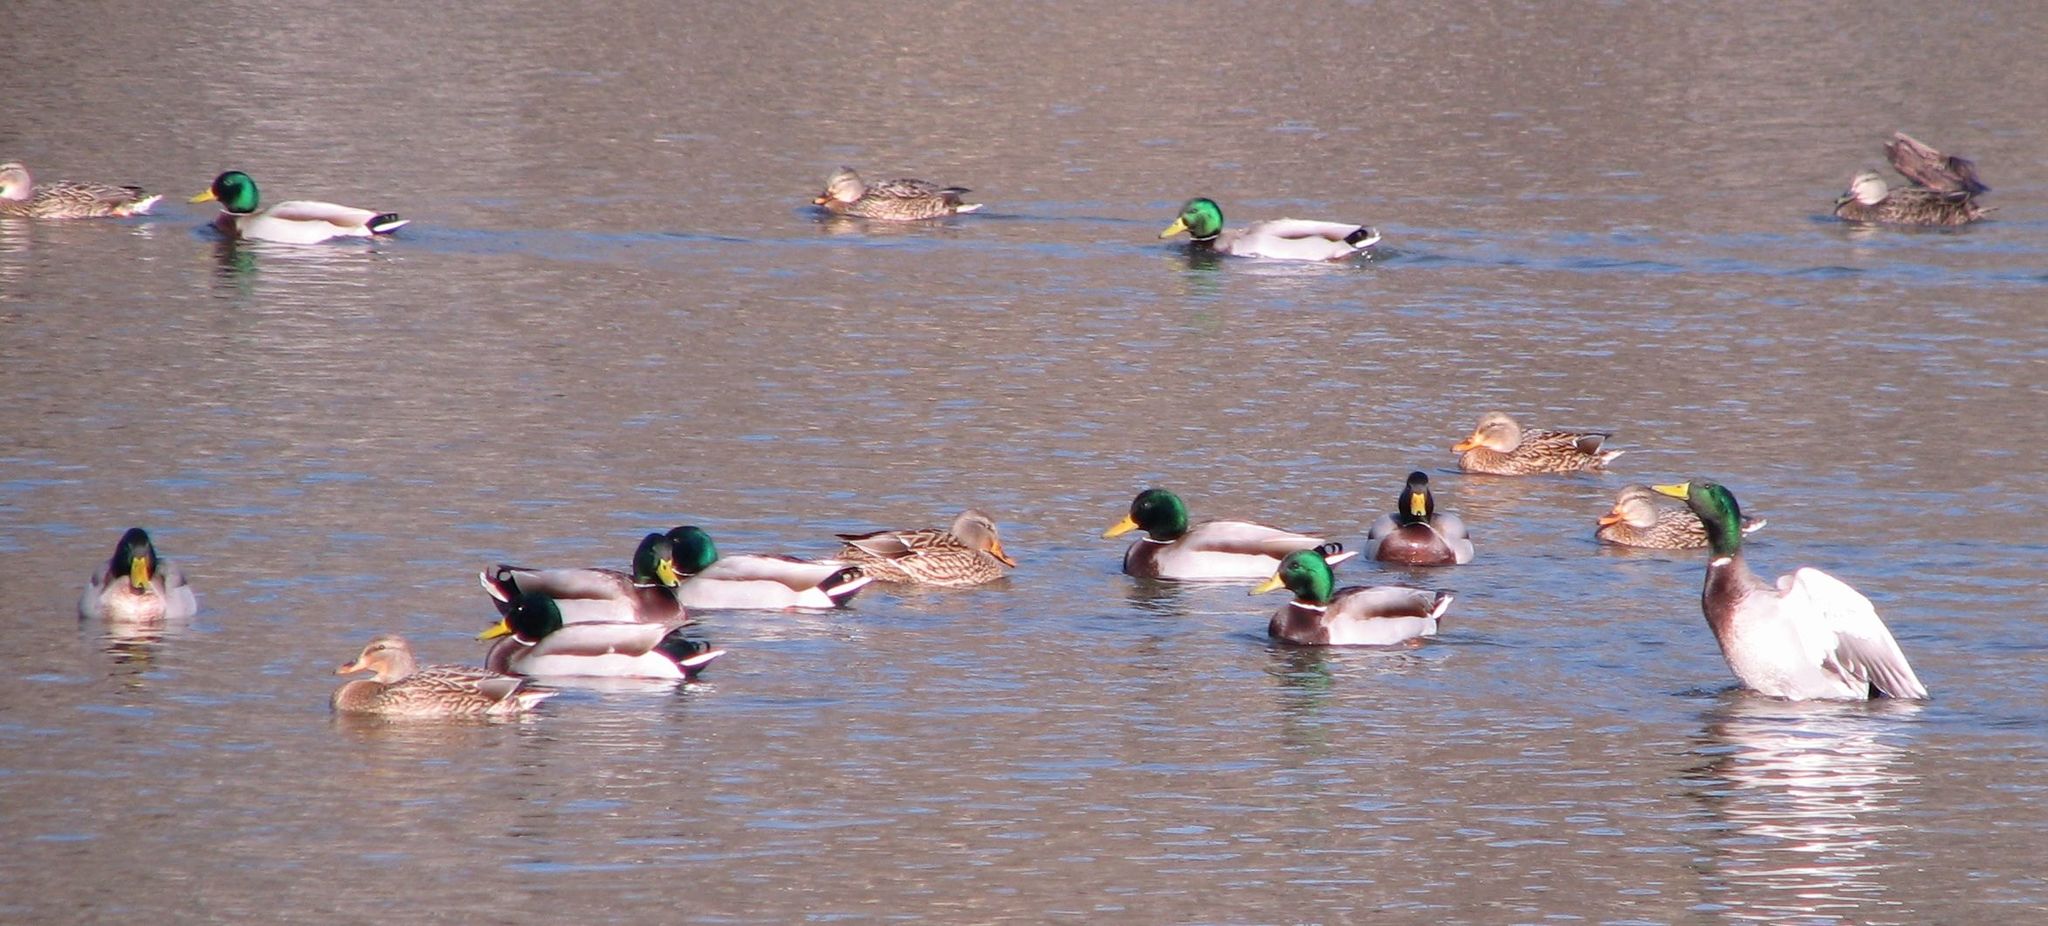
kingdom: Animalia
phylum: Chordata
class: Aves
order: Anseriformes
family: Anatidae
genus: Anas
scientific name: Anas platyrhynchos
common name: Mallard
